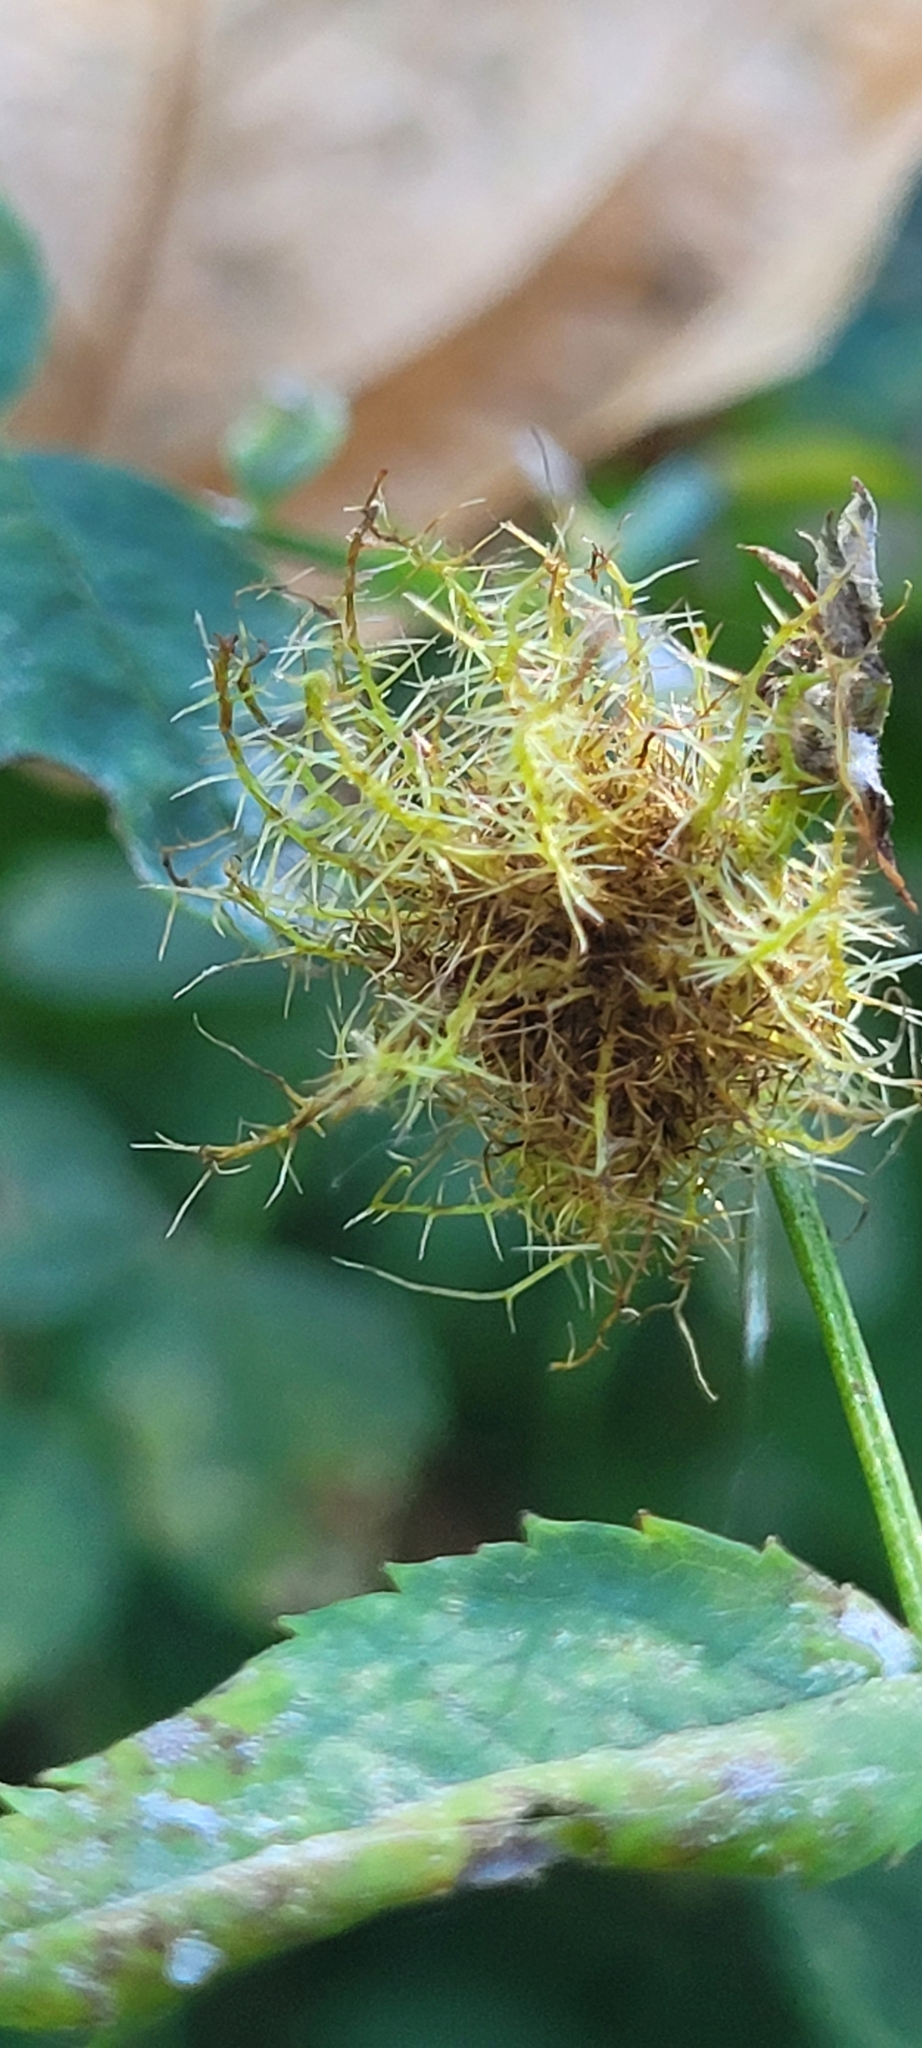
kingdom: Animalia
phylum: Arthropoda
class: Insecta
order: Hymenoptera
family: Cynipidae
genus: Diplolepis
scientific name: Diplolepis rosae
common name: Bedeguar gall
